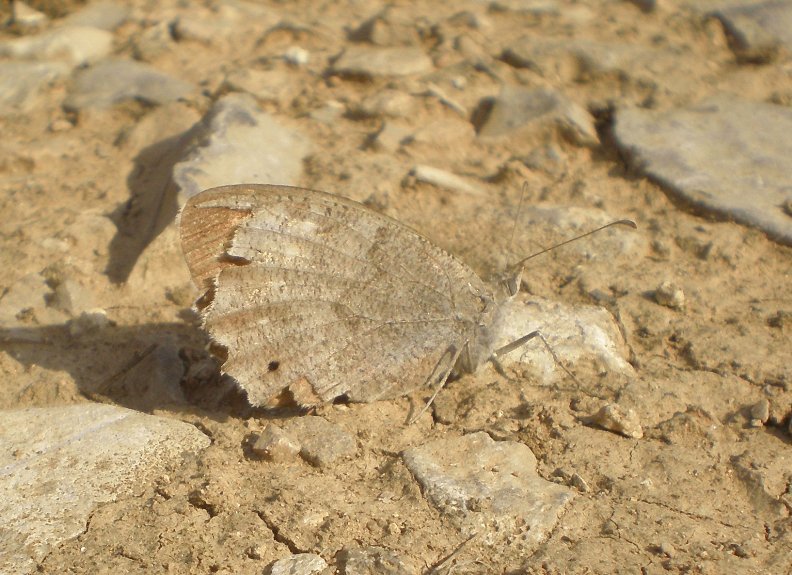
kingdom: Animalia
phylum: Arthropoda
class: Insecta
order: Lepidoptera
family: Nymphalidae
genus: Hipparchia
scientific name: Hipparchia statilinus
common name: Tree grayling
